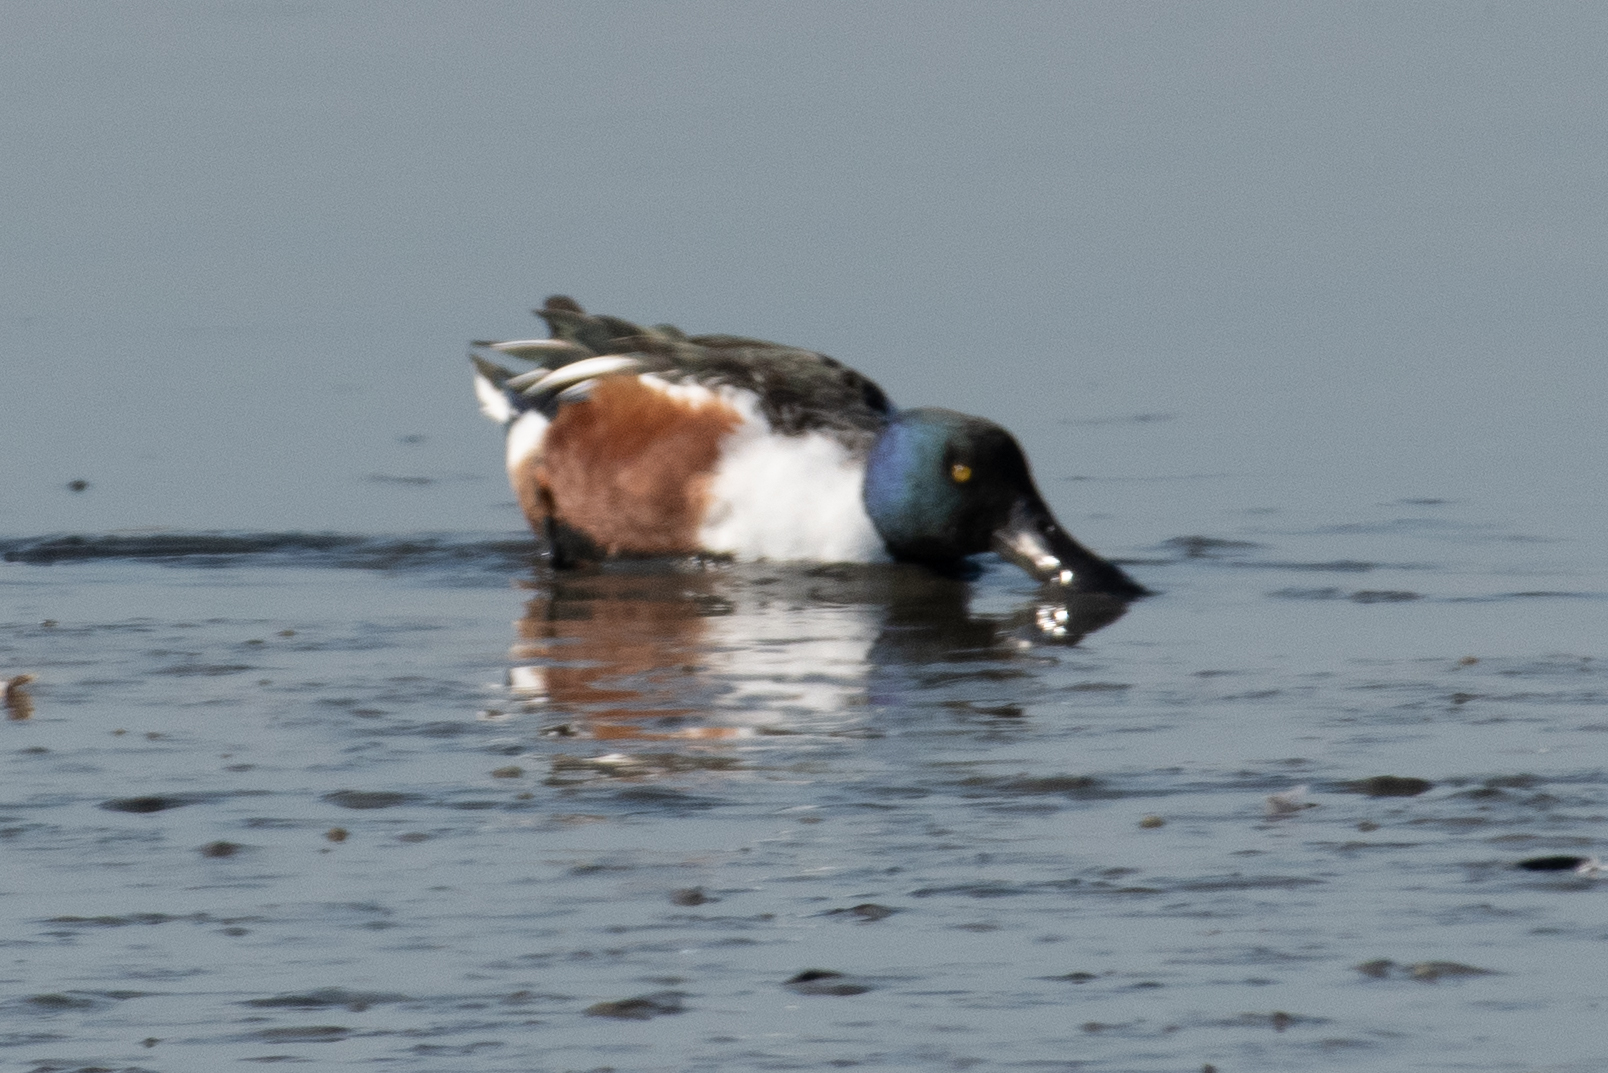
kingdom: Animalia
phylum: Chordata
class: Aves
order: Anseriformes
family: Anatidae
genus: Spatula
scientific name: Spatula clypeata
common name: Northern shoveler
